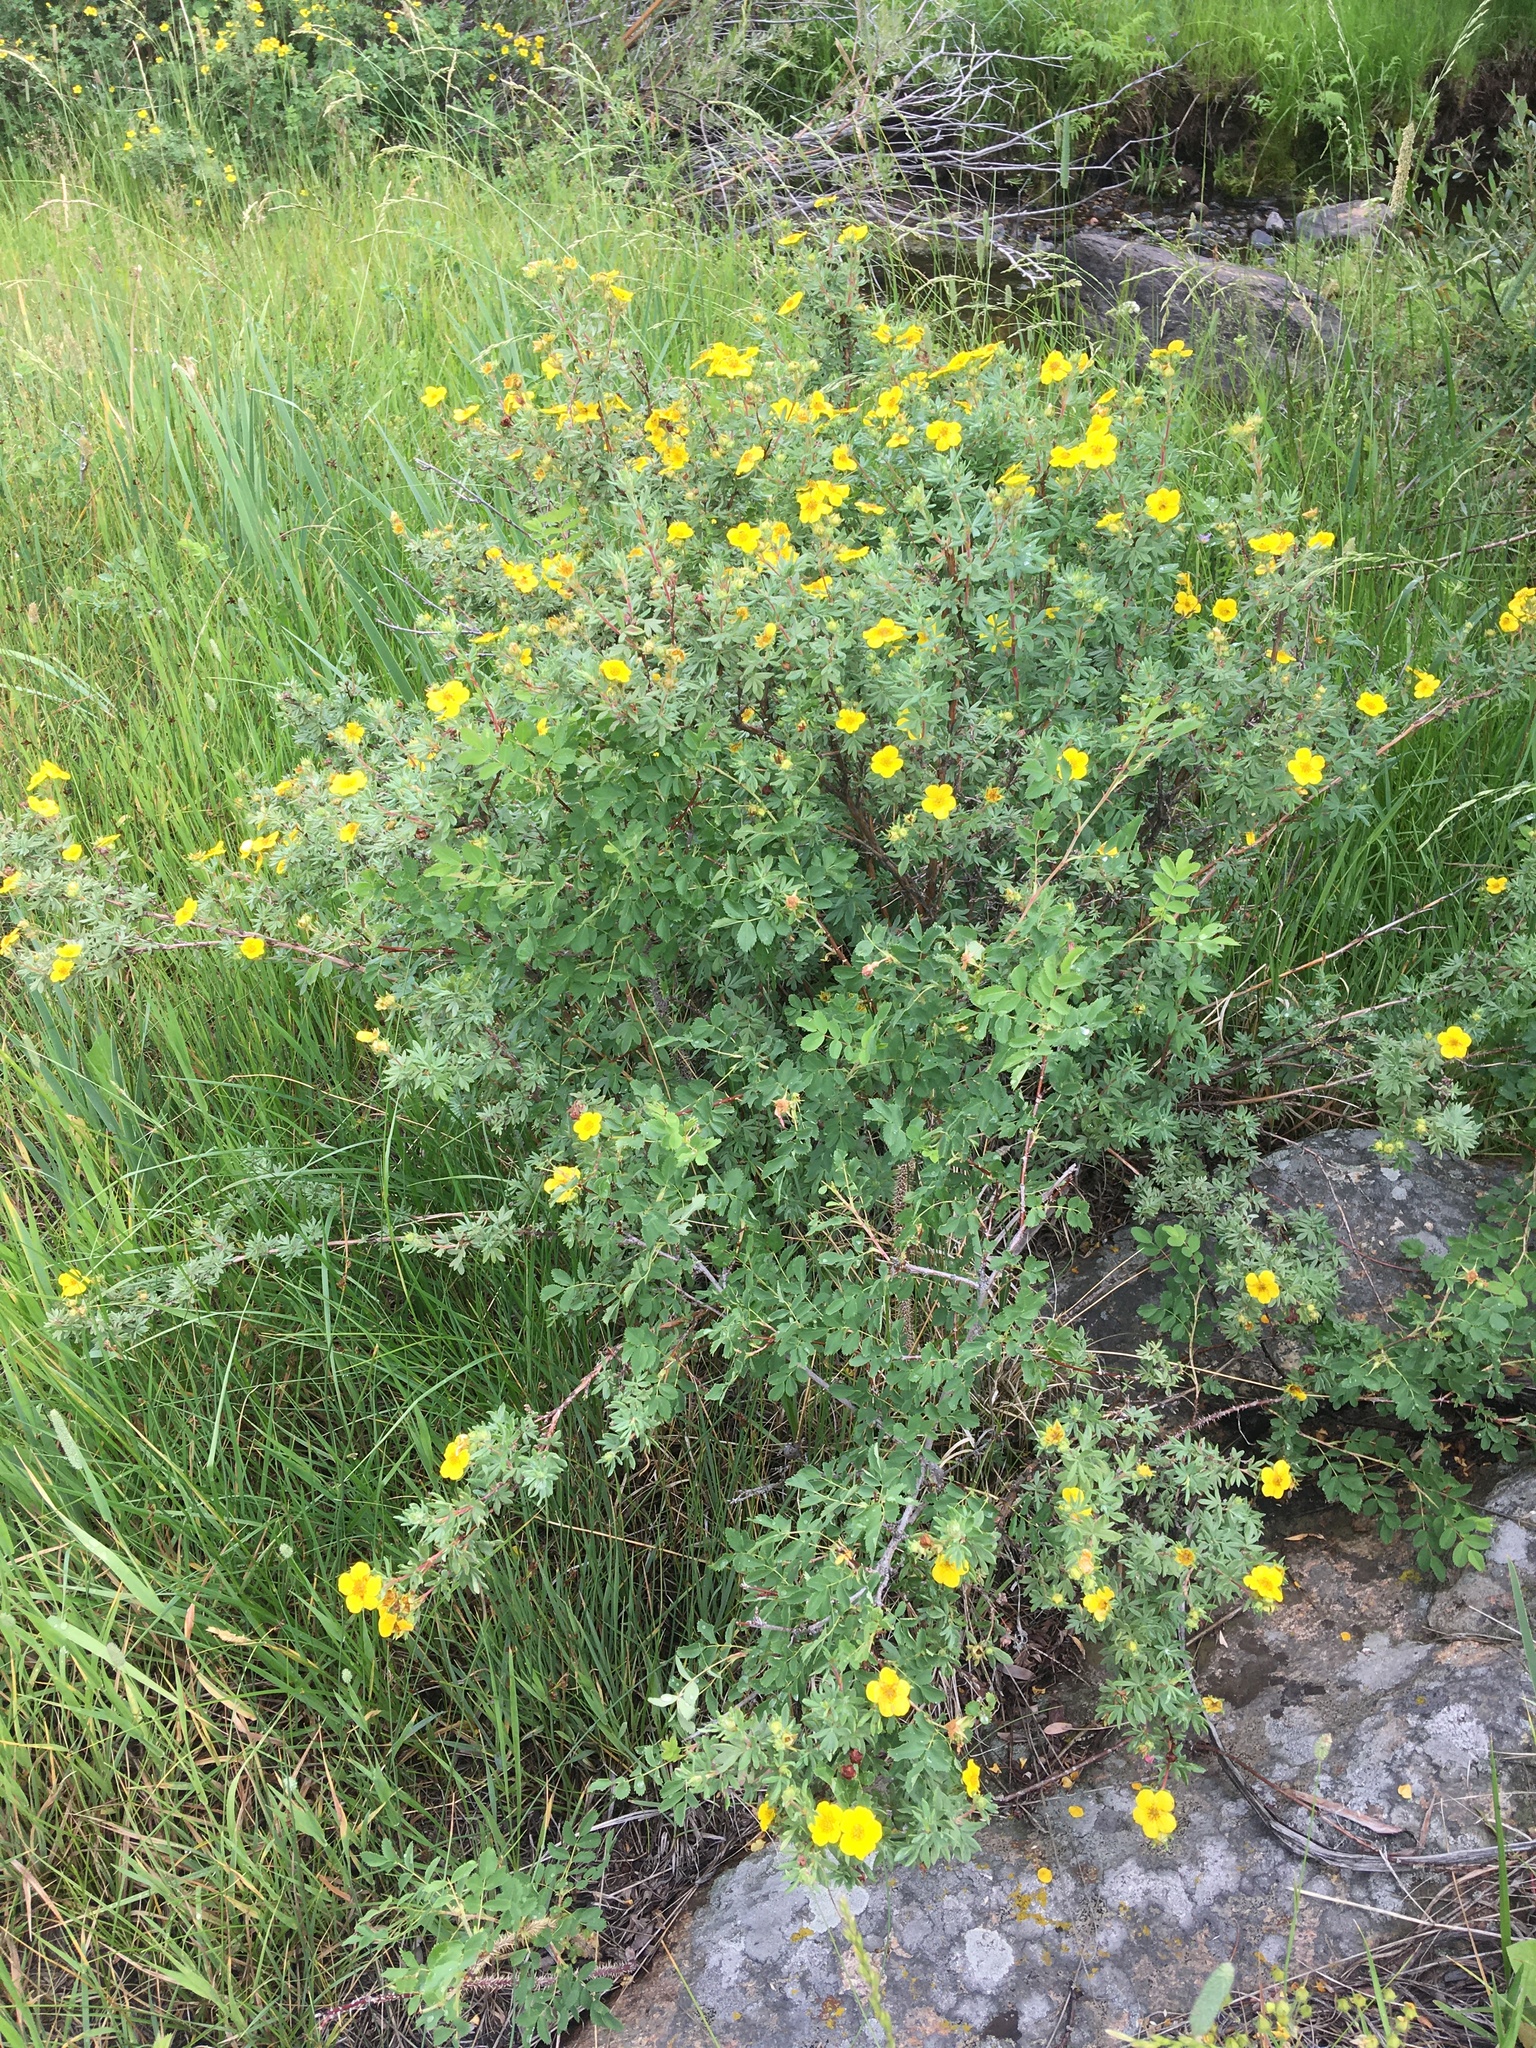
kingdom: Plantae
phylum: Tracheophyta
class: Magnoliopsida
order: Rosales
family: Rosaceae
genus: Dasiphora
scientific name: Dasiphora fruticosa
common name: Shrubby cinquefoil
